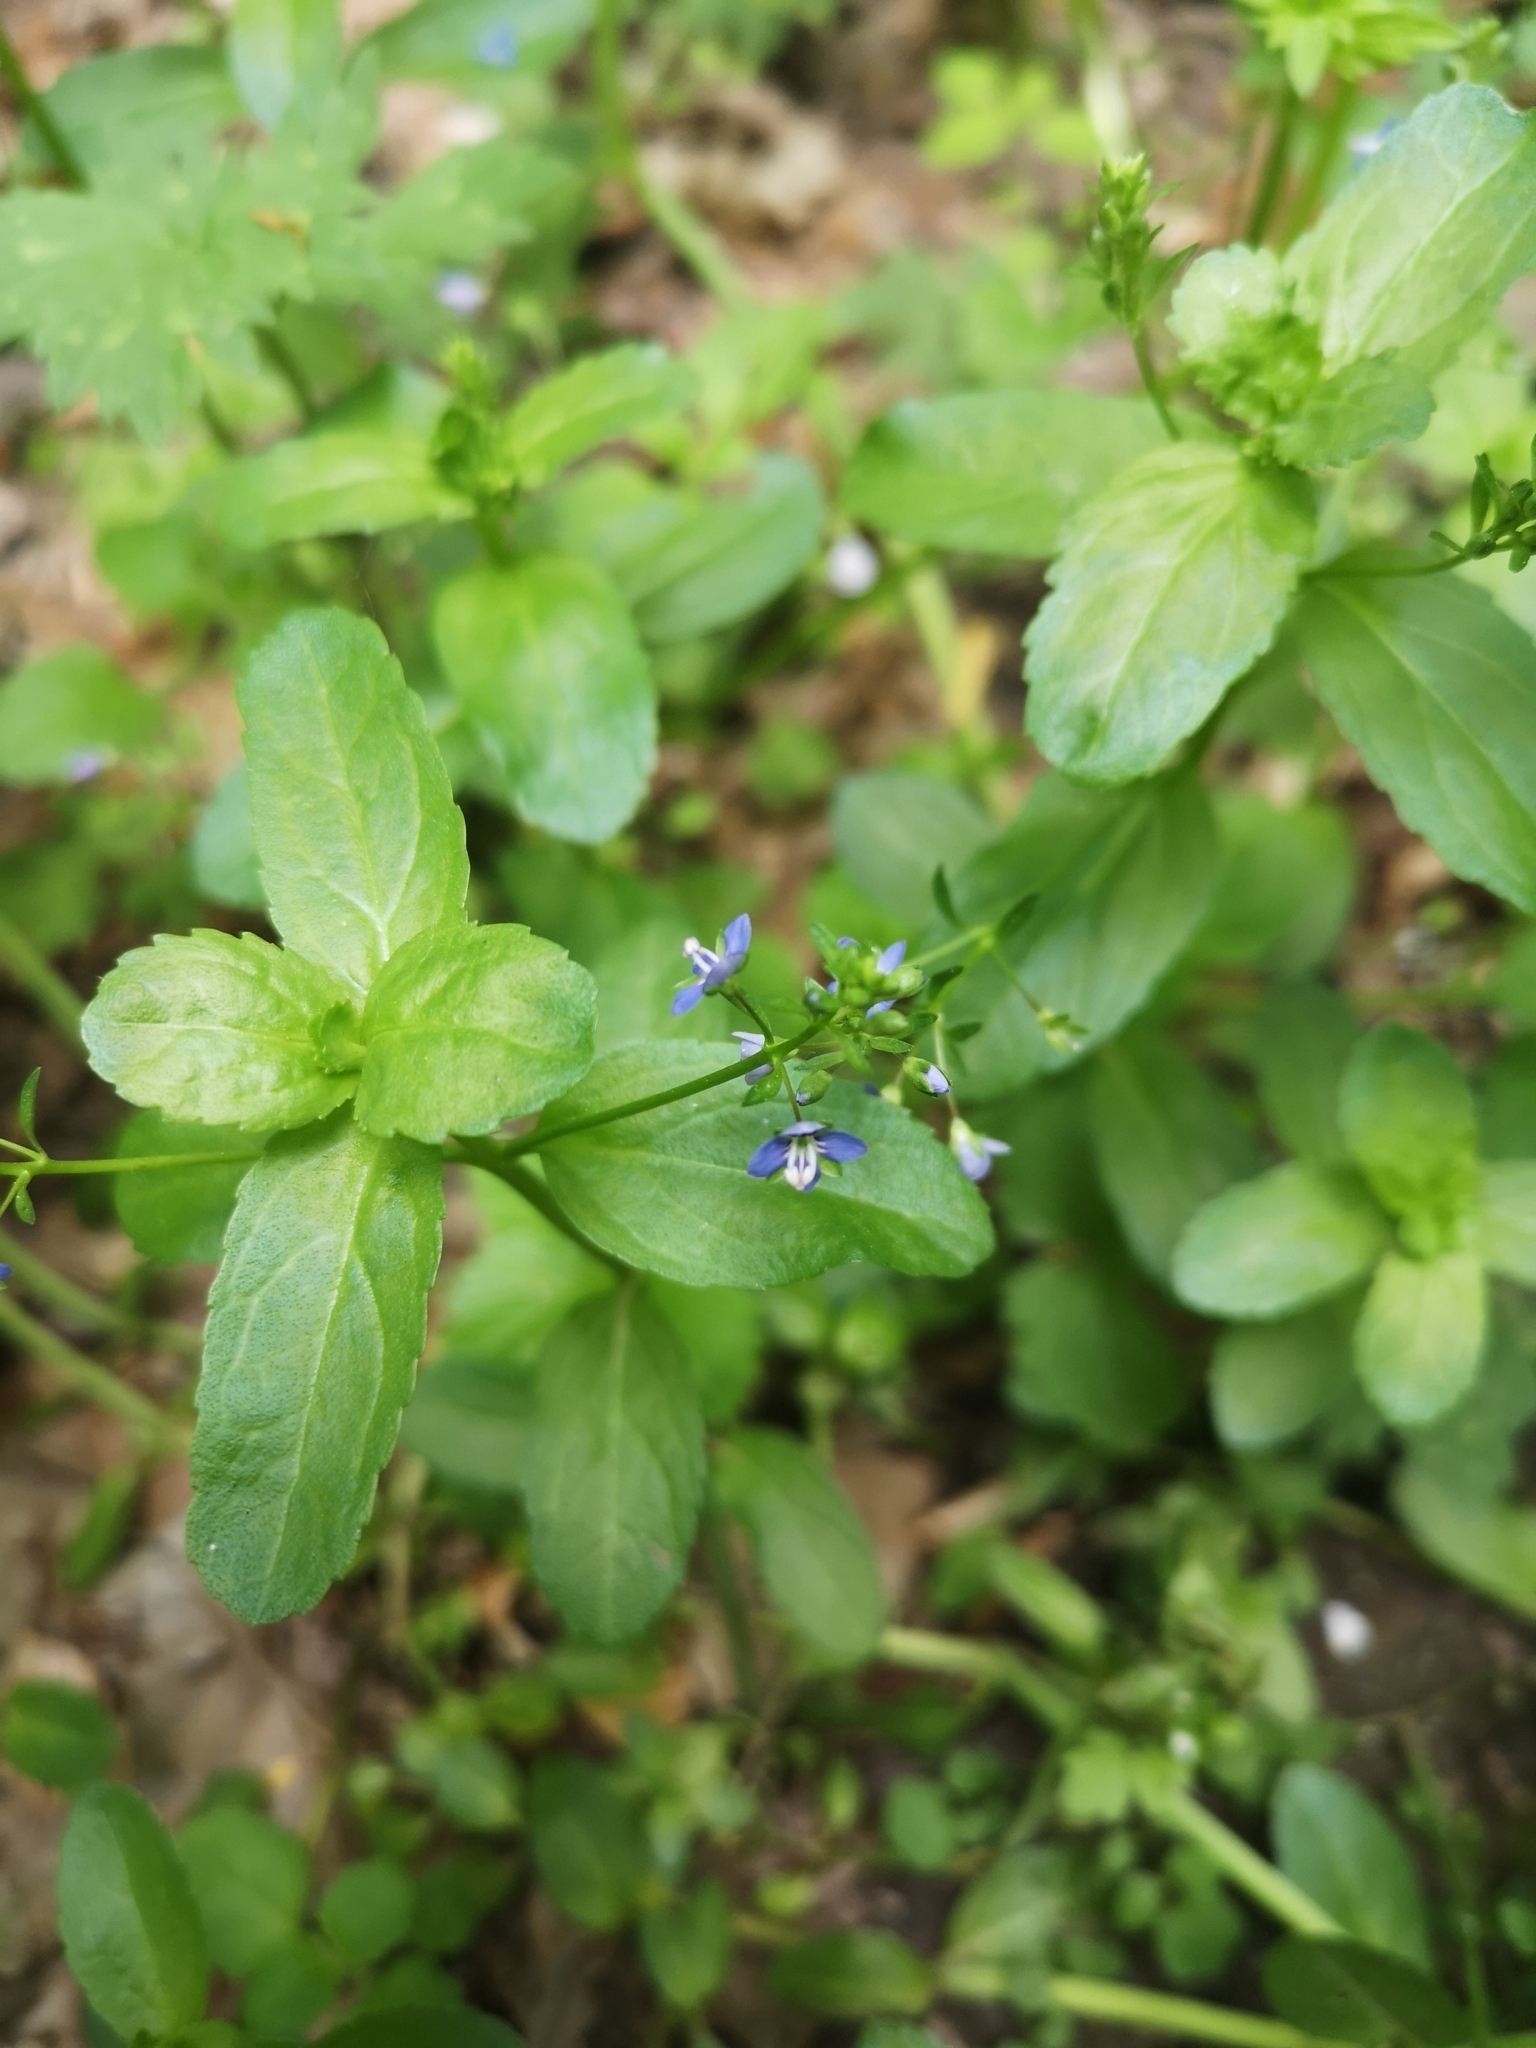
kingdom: Plantae
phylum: Tracheophyta
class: Magnoliopsida
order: Lamiales
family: Plantaginaceae
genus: Veronica
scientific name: Veronica beccabunga
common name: Brooklime
